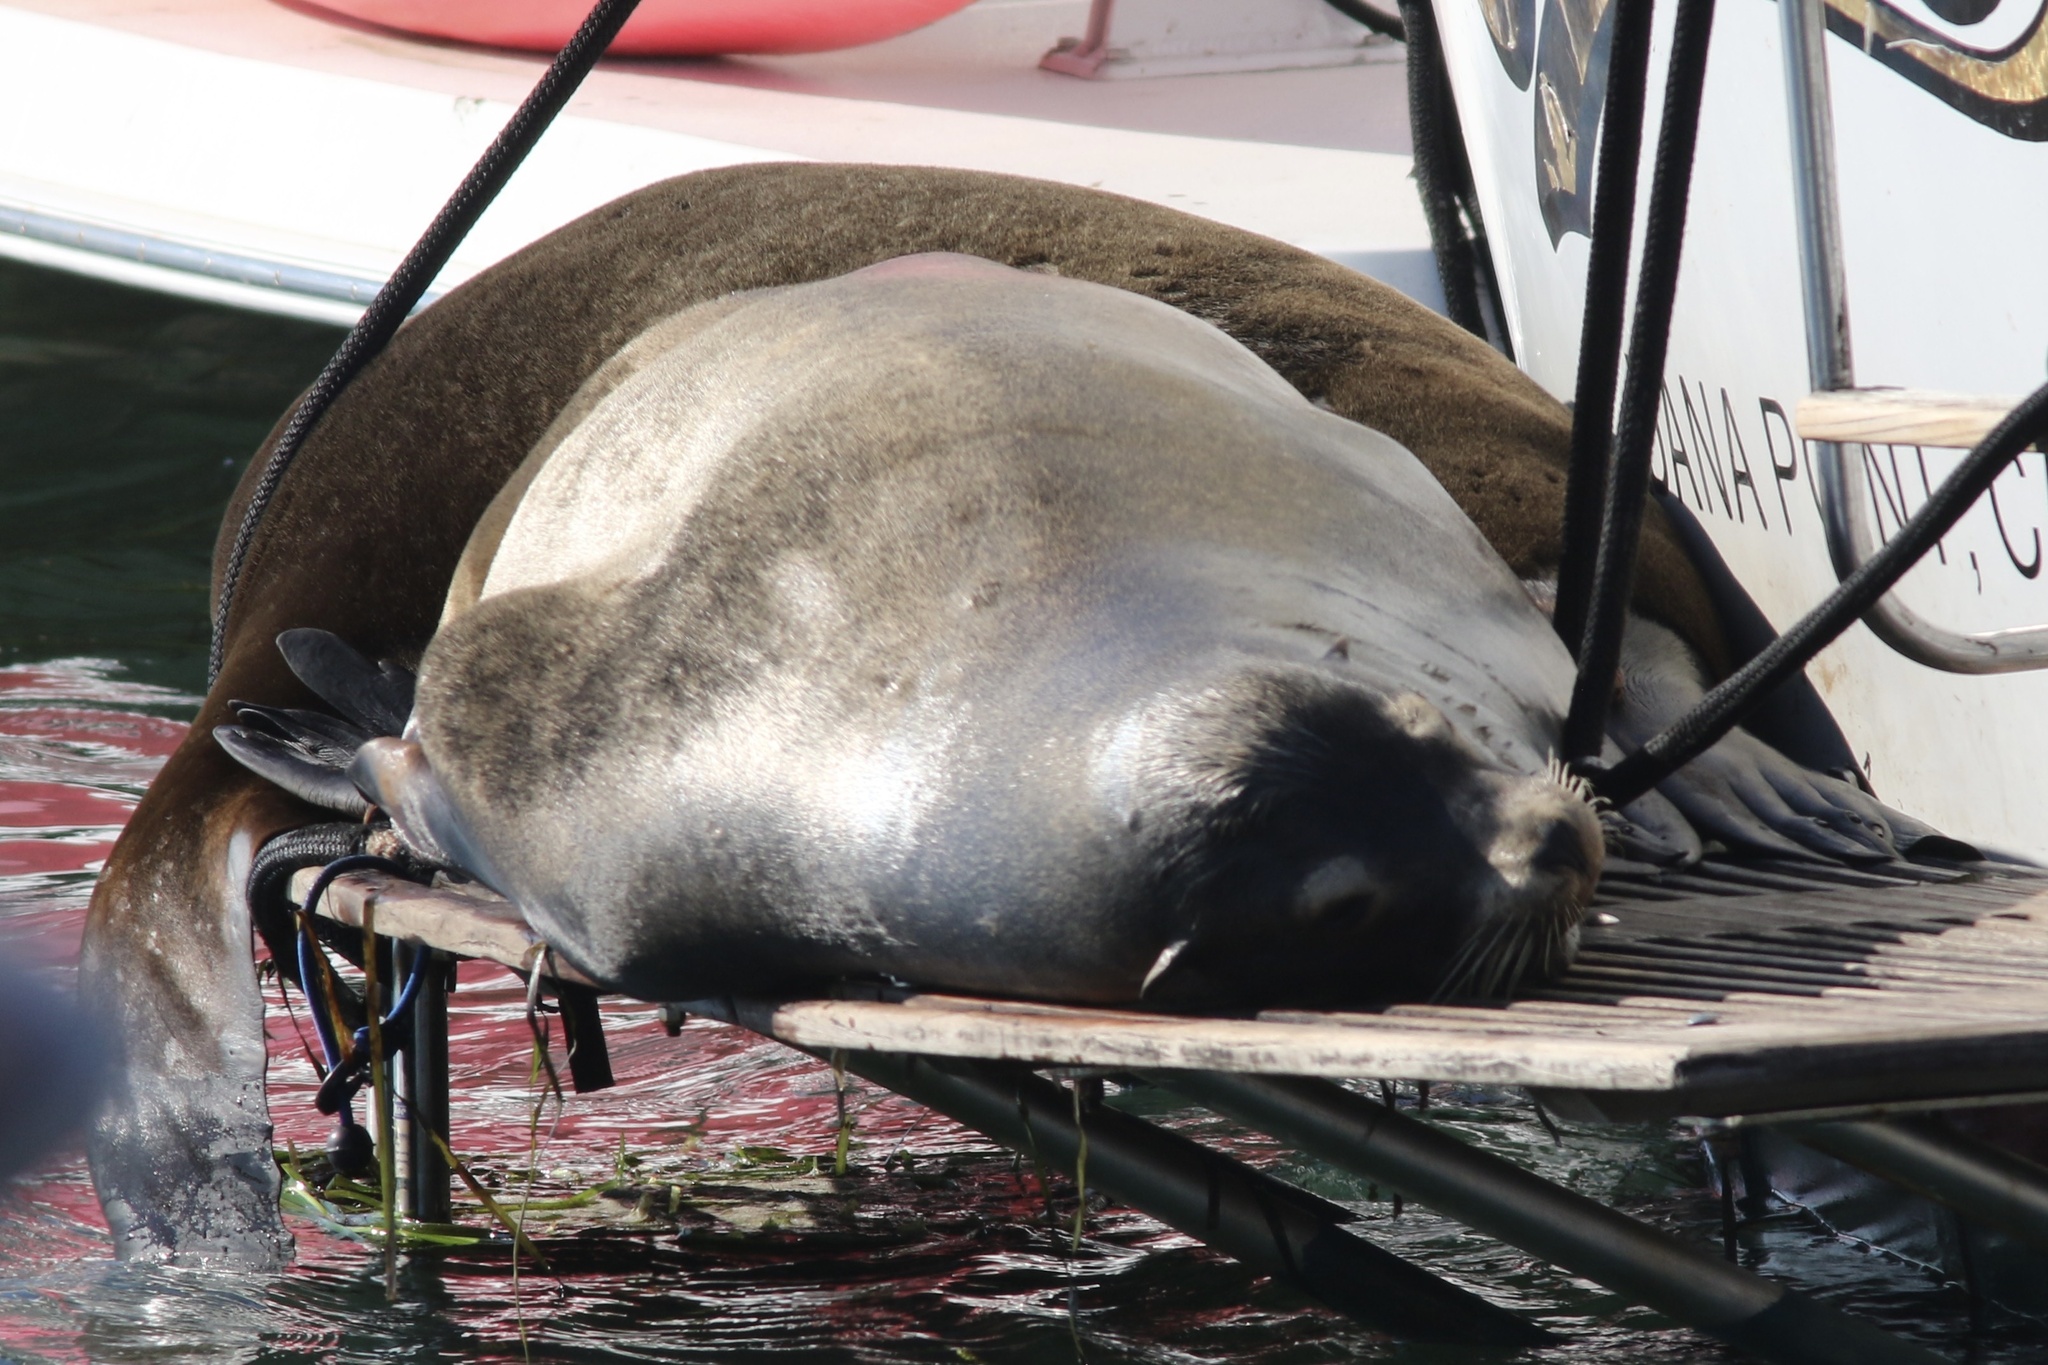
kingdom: Animalia
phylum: Chordata
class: Mammalia
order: Carnivora
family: Otariidae
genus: Zalophus
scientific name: Zalophus californianus
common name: California sea lion
